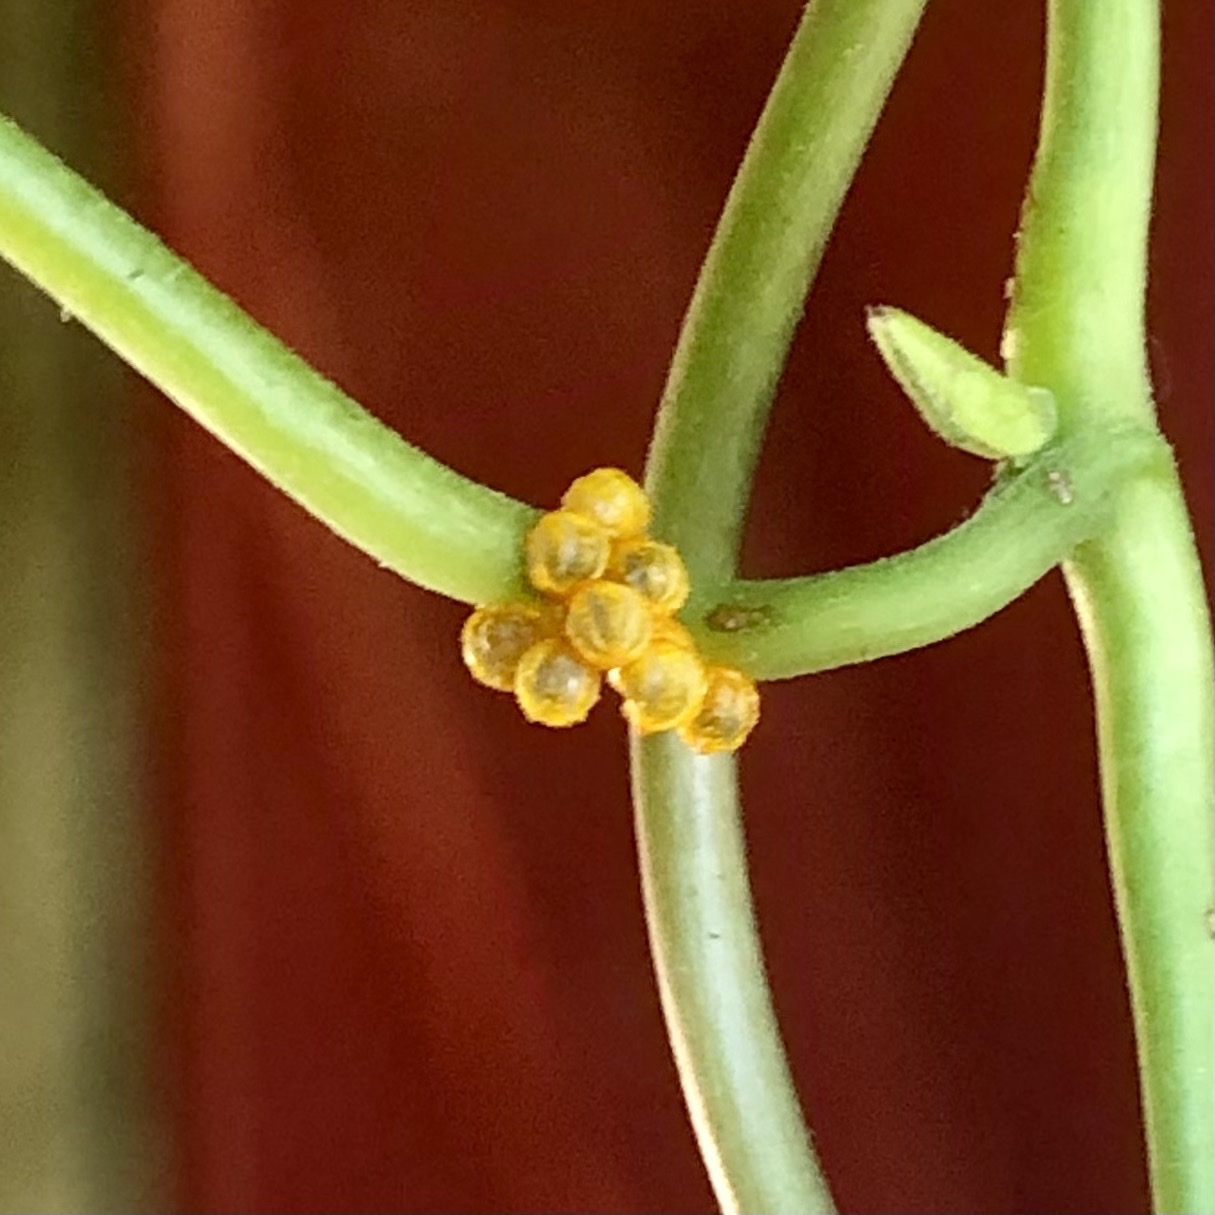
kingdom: Animalia
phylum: Arthropoda
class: Insecta
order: Lepidoptera
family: Papilionidae
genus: Battus
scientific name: Battus polydamas
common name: Polydamas swallowtail
